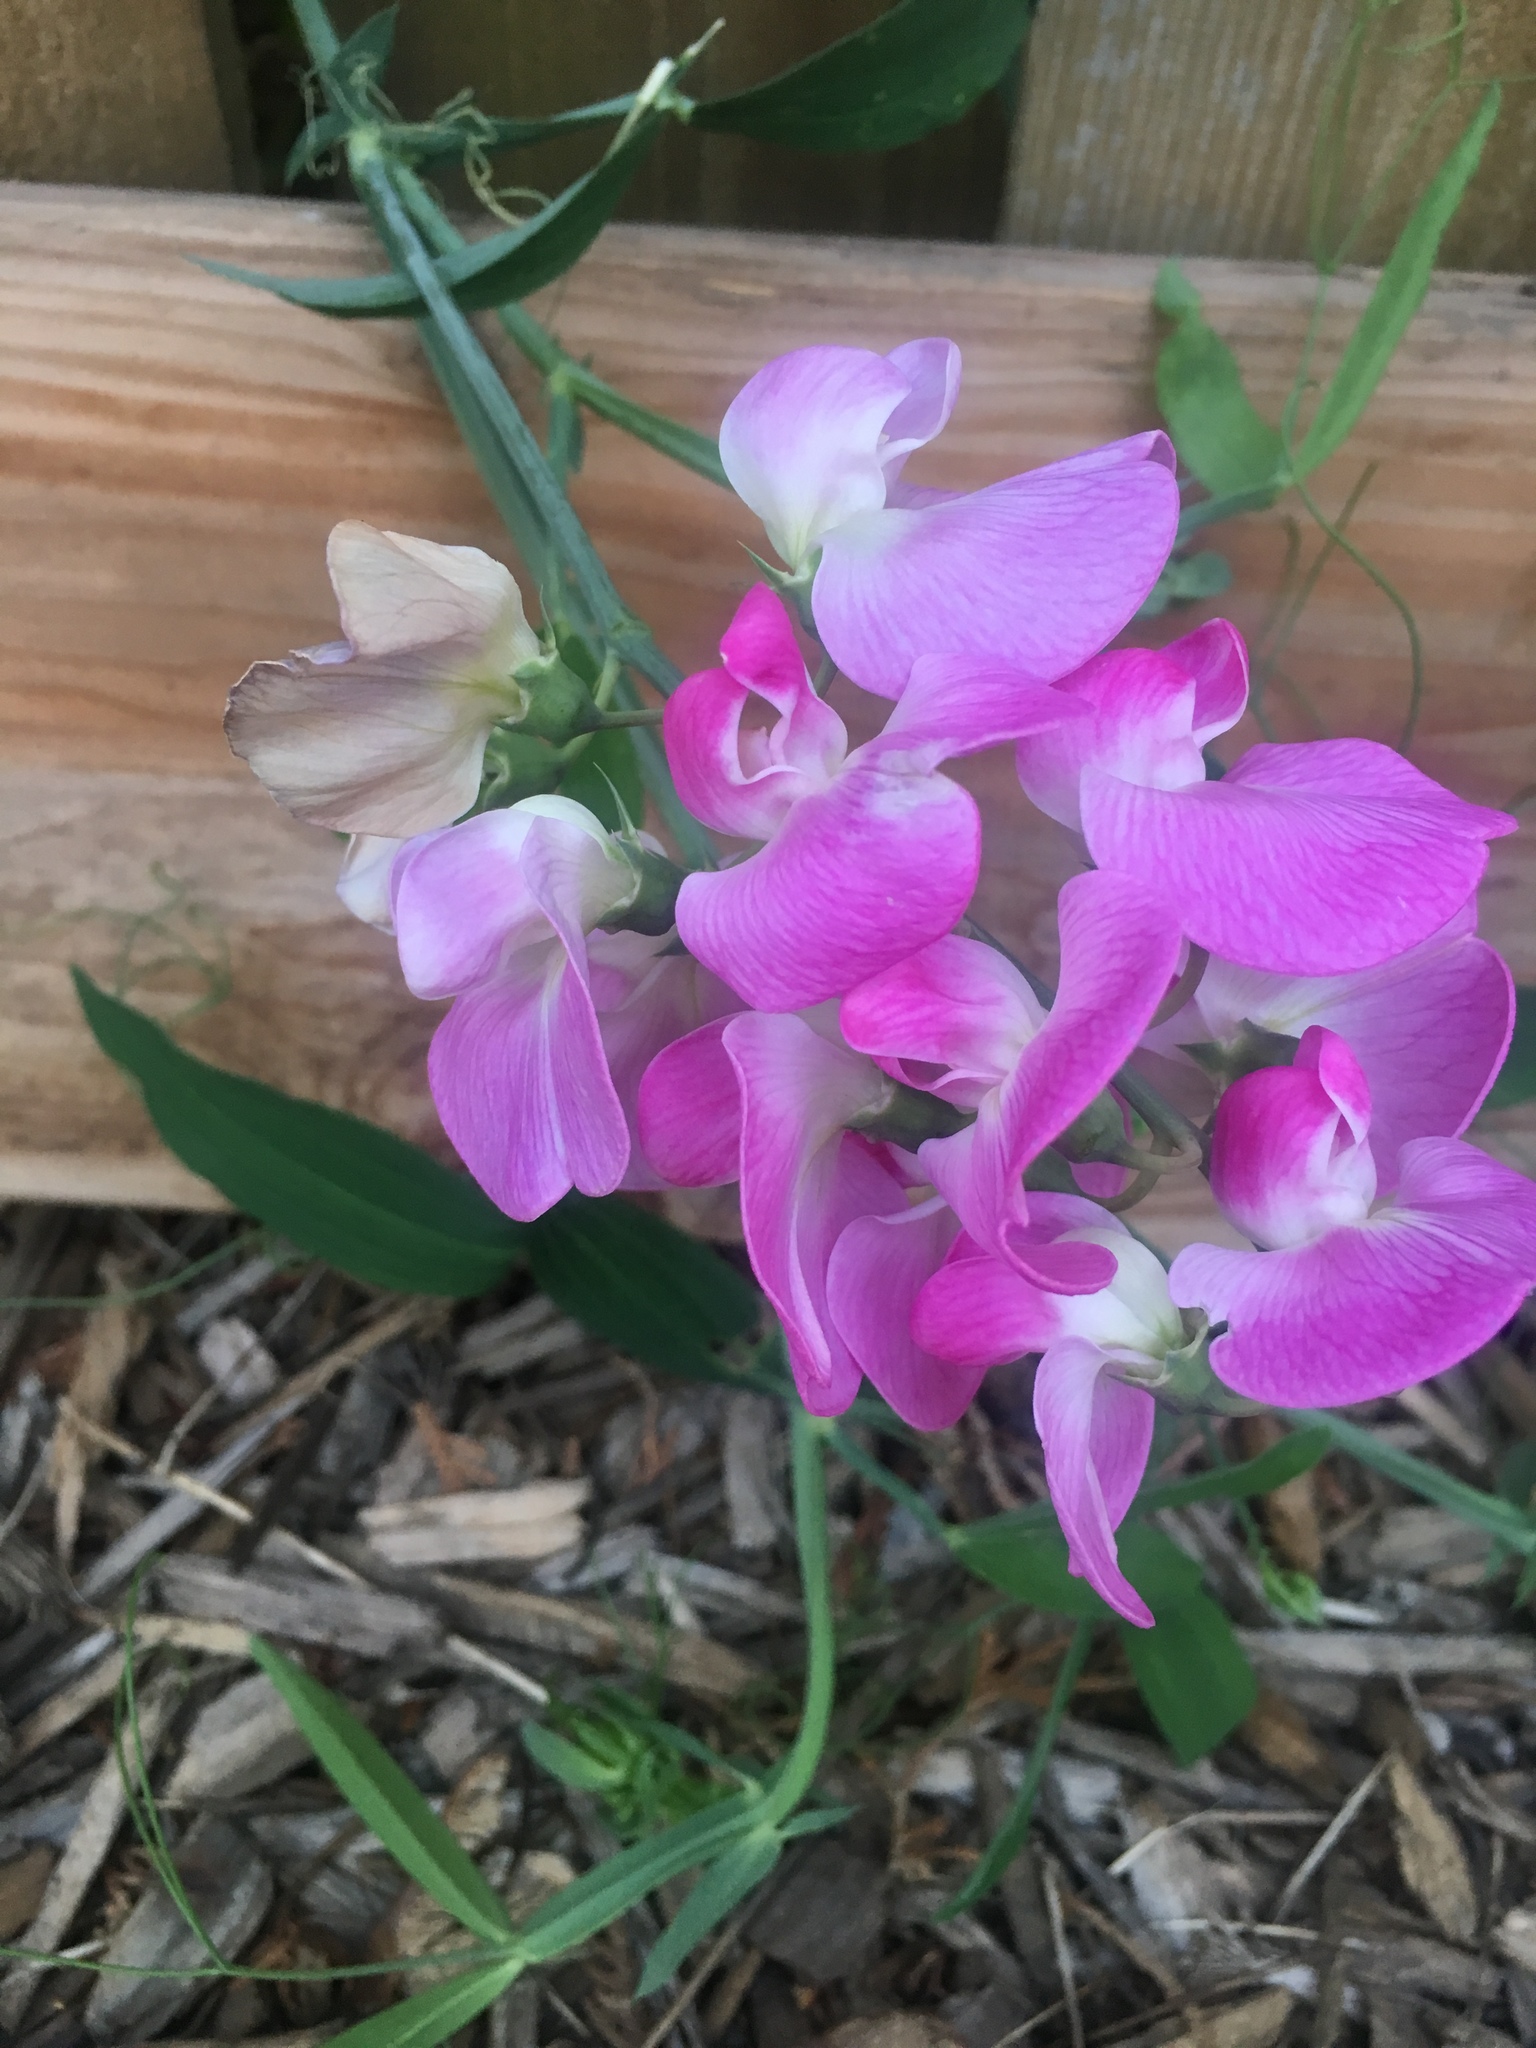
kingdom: Plantae
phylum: Tracheophyta
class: Magnoliopsida
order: Fabales
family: Fabaceae
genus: Lathyrus
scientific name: Lathyrus latifolius
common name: Perennial pea
